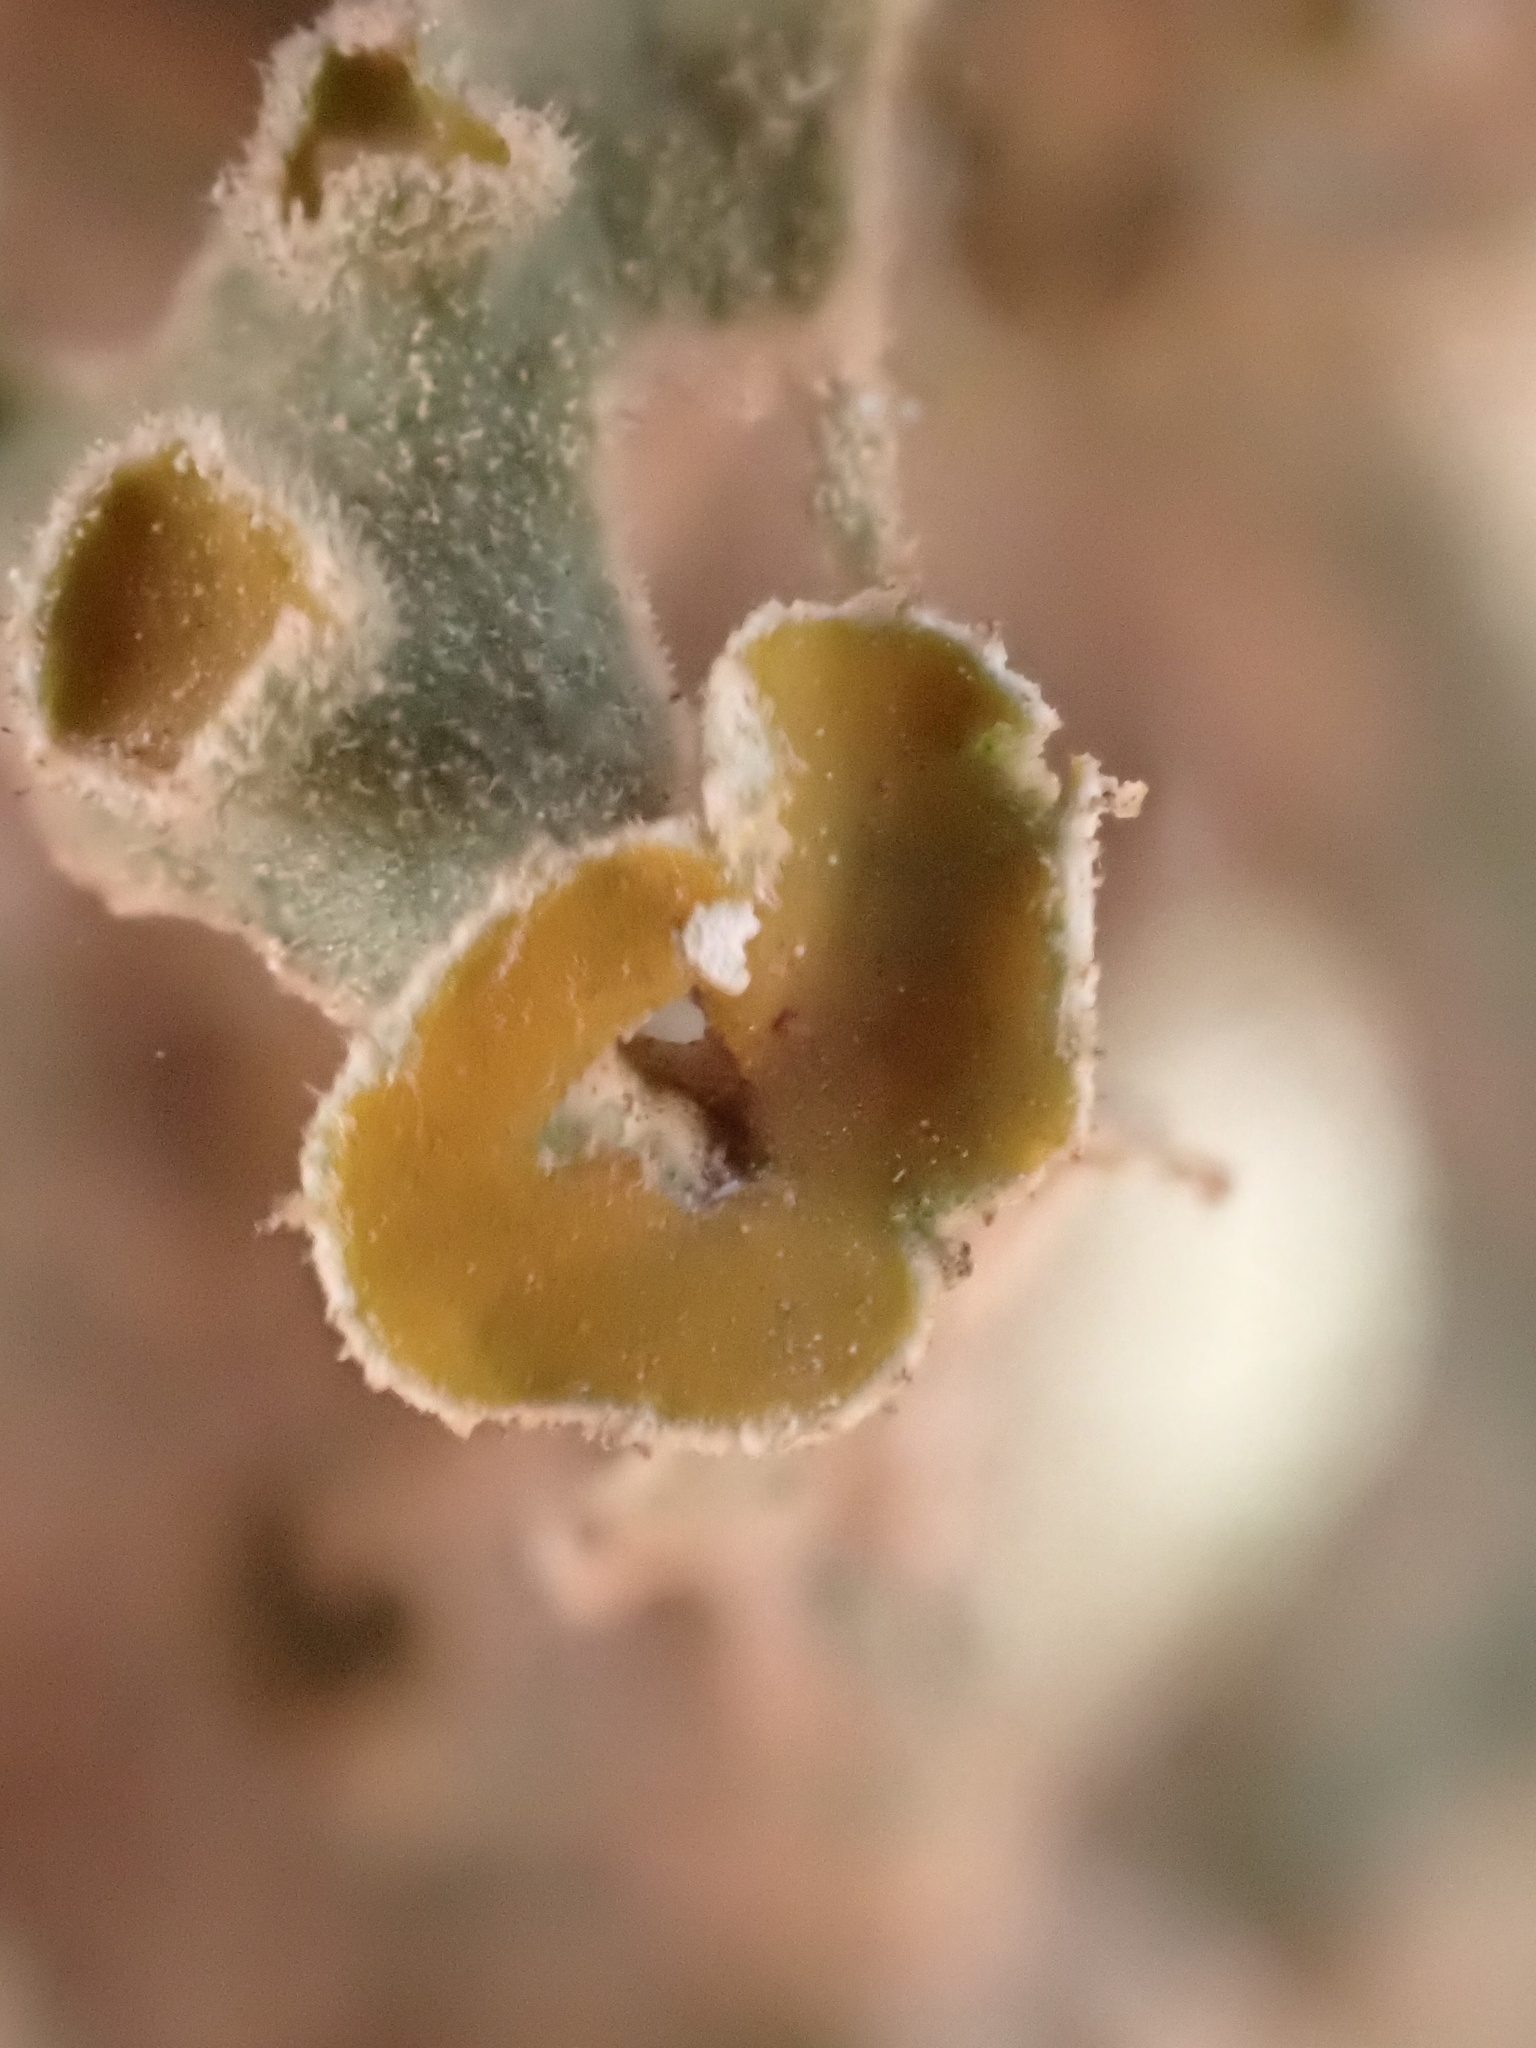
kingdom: Fungi
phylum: Ascomycota
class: Lecanoromycetes
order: Teloschistales
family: Teloschistaceae
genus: Seirophora
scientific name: Seirophora villosa
